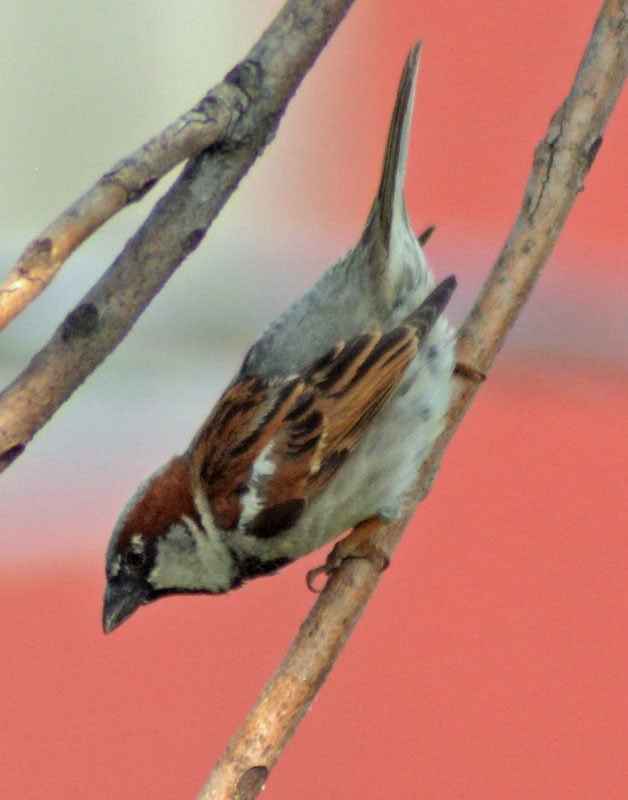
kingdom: Animalia
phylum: Chordata
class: Aves
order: Passeriformes
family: Passeridae
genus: Passer
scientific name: Passer domesticus
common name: House sparrow
